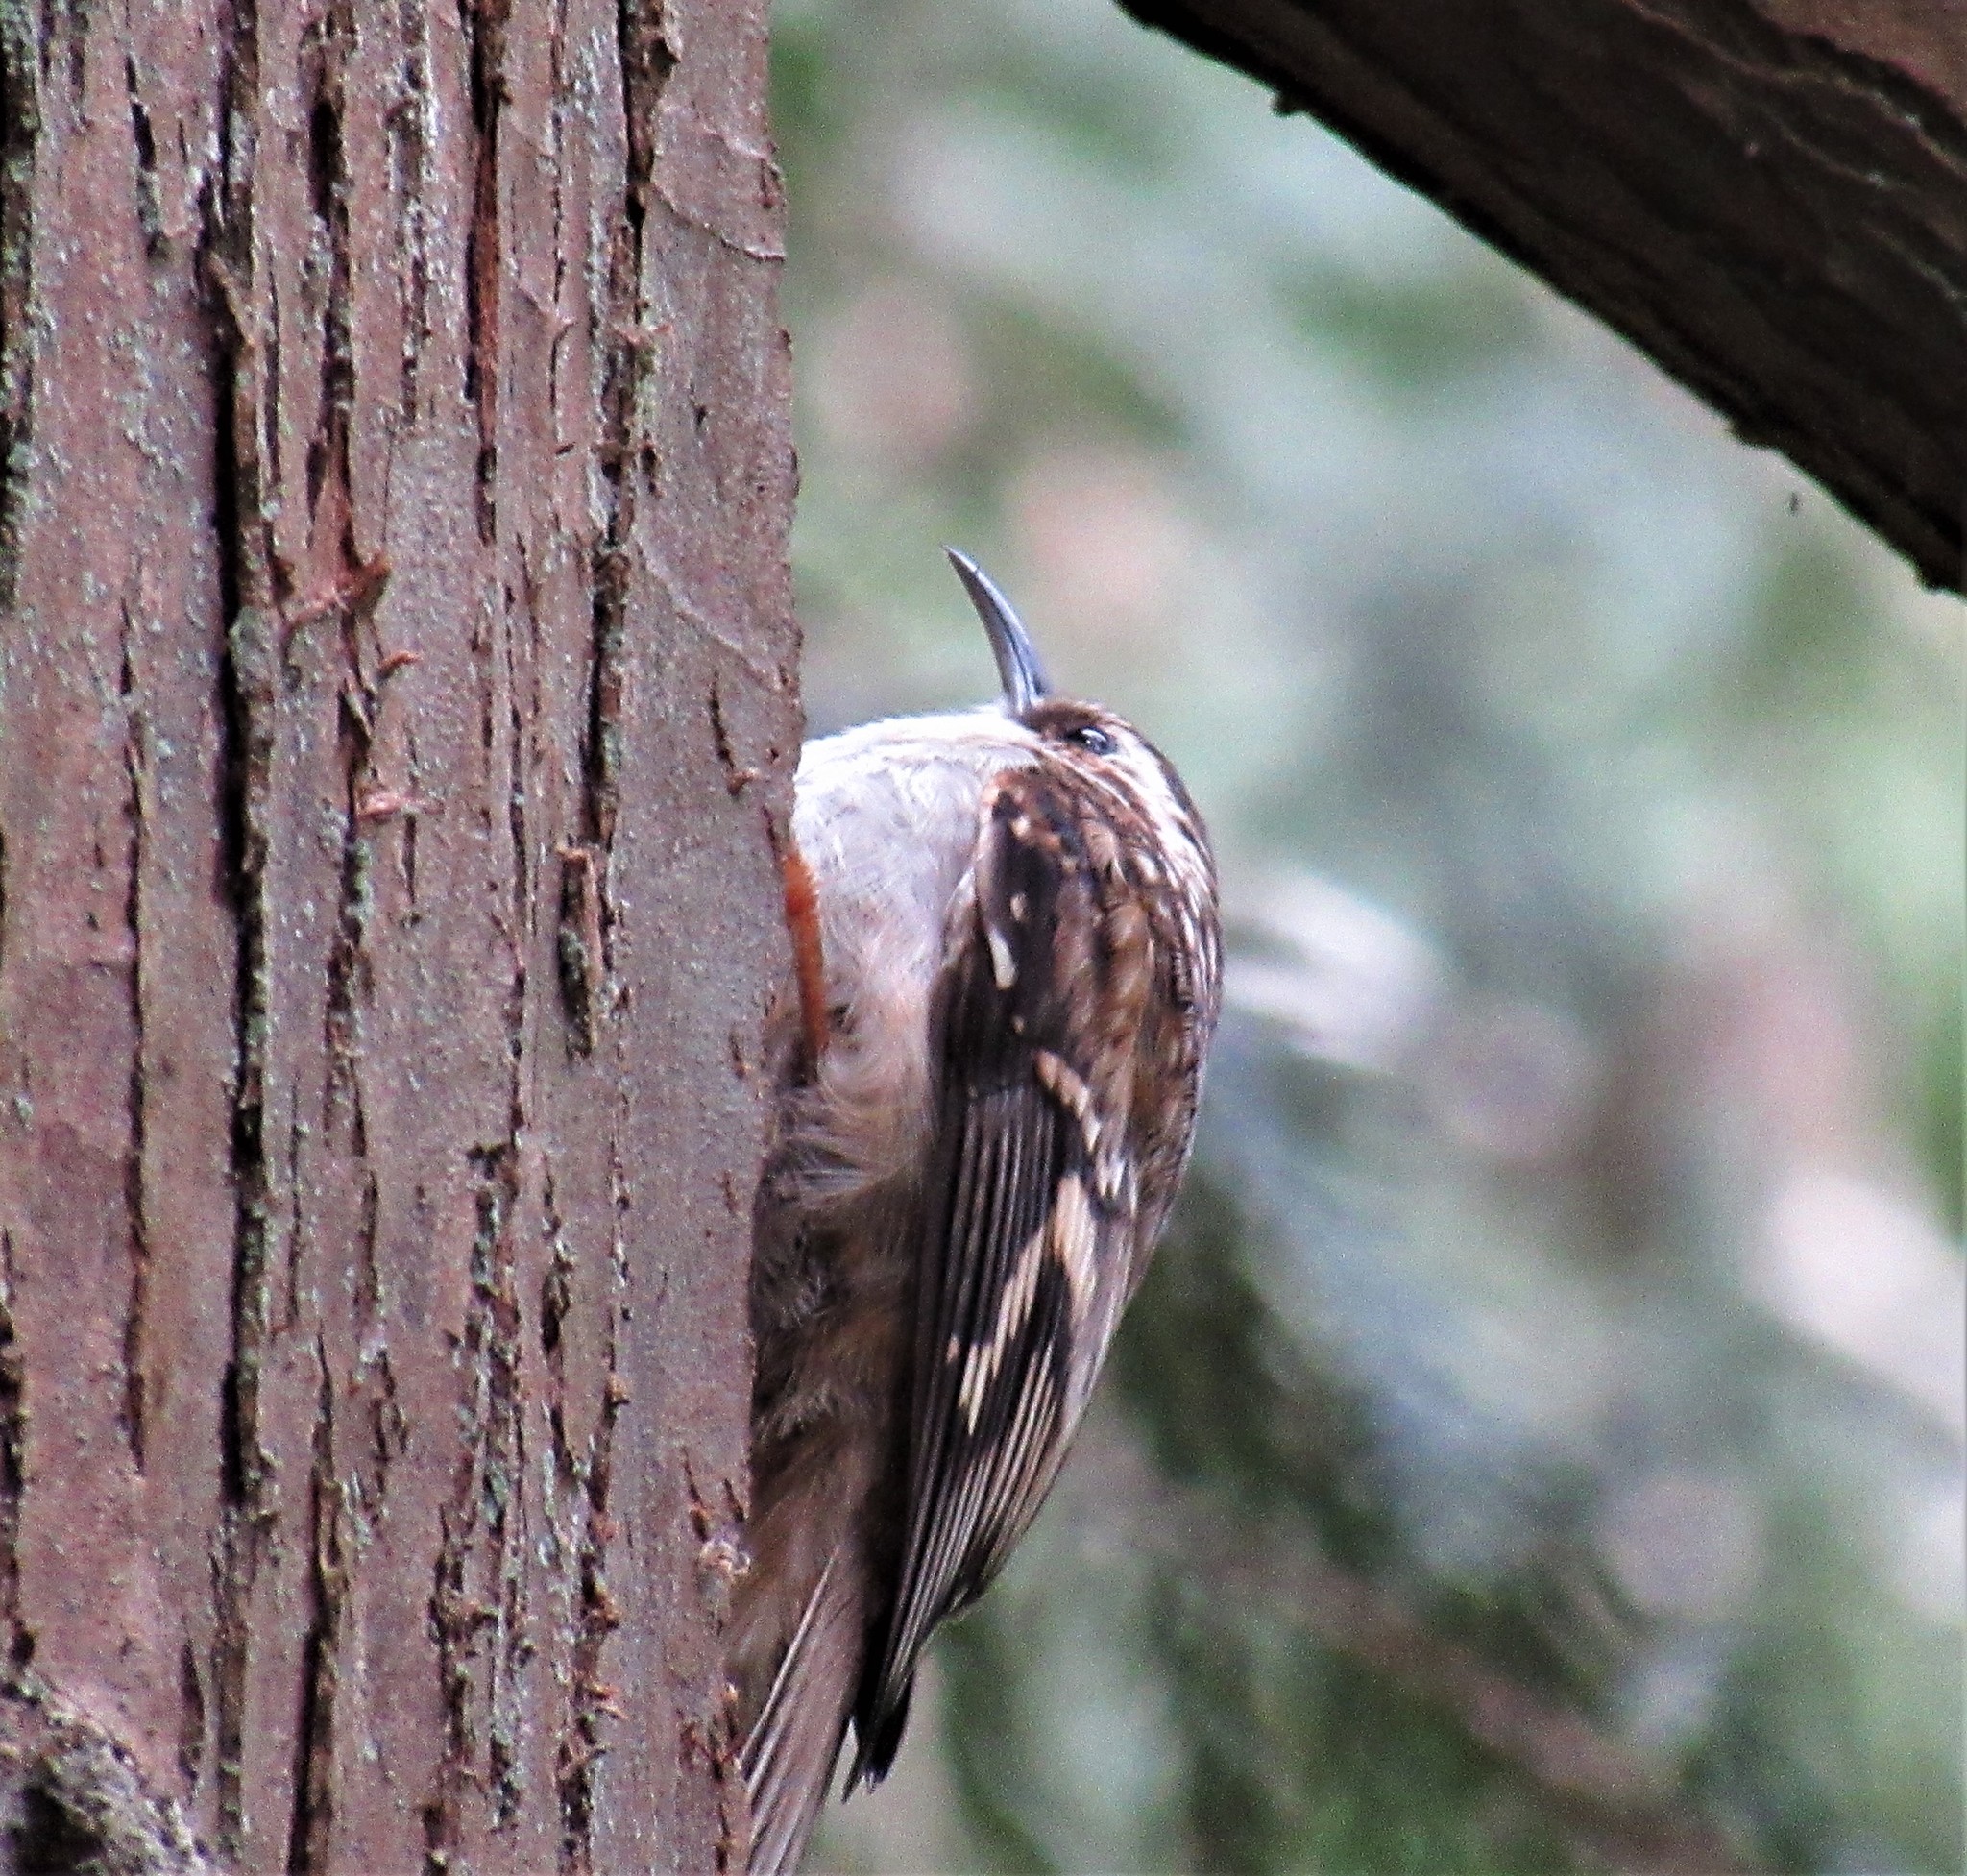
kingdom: Animalia
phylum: Chordata
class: Aves
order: Passeriformes
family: Certhiidae
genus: Certhia
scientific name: Certhia americana
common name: Brown creeper
